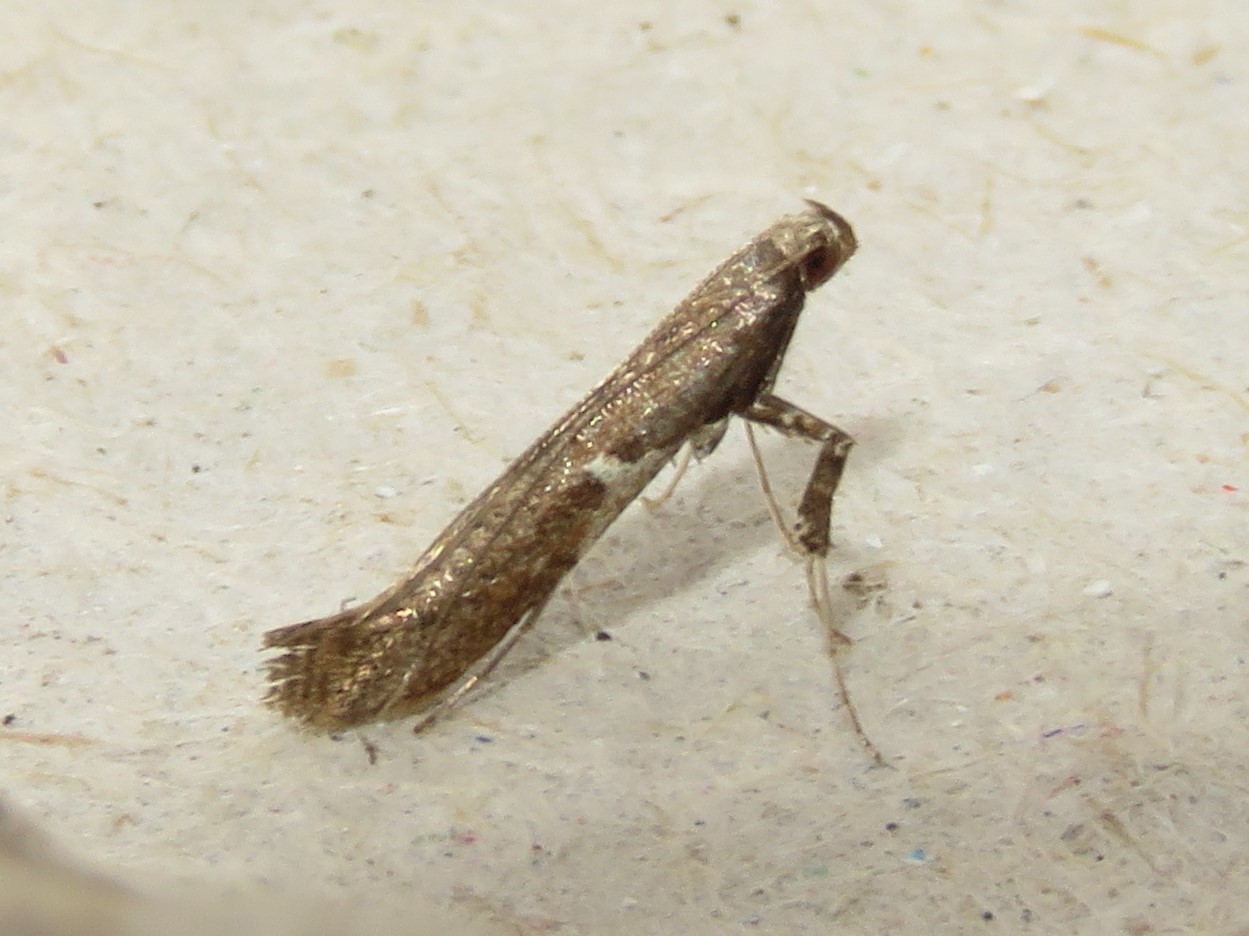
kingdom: Animalia
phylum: Arthropoda
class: Insecta
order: Lepidoptera
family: Gracillariidae
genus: Caloptilia
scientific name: Caloptilia stigmatella
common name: White-triangle slender
